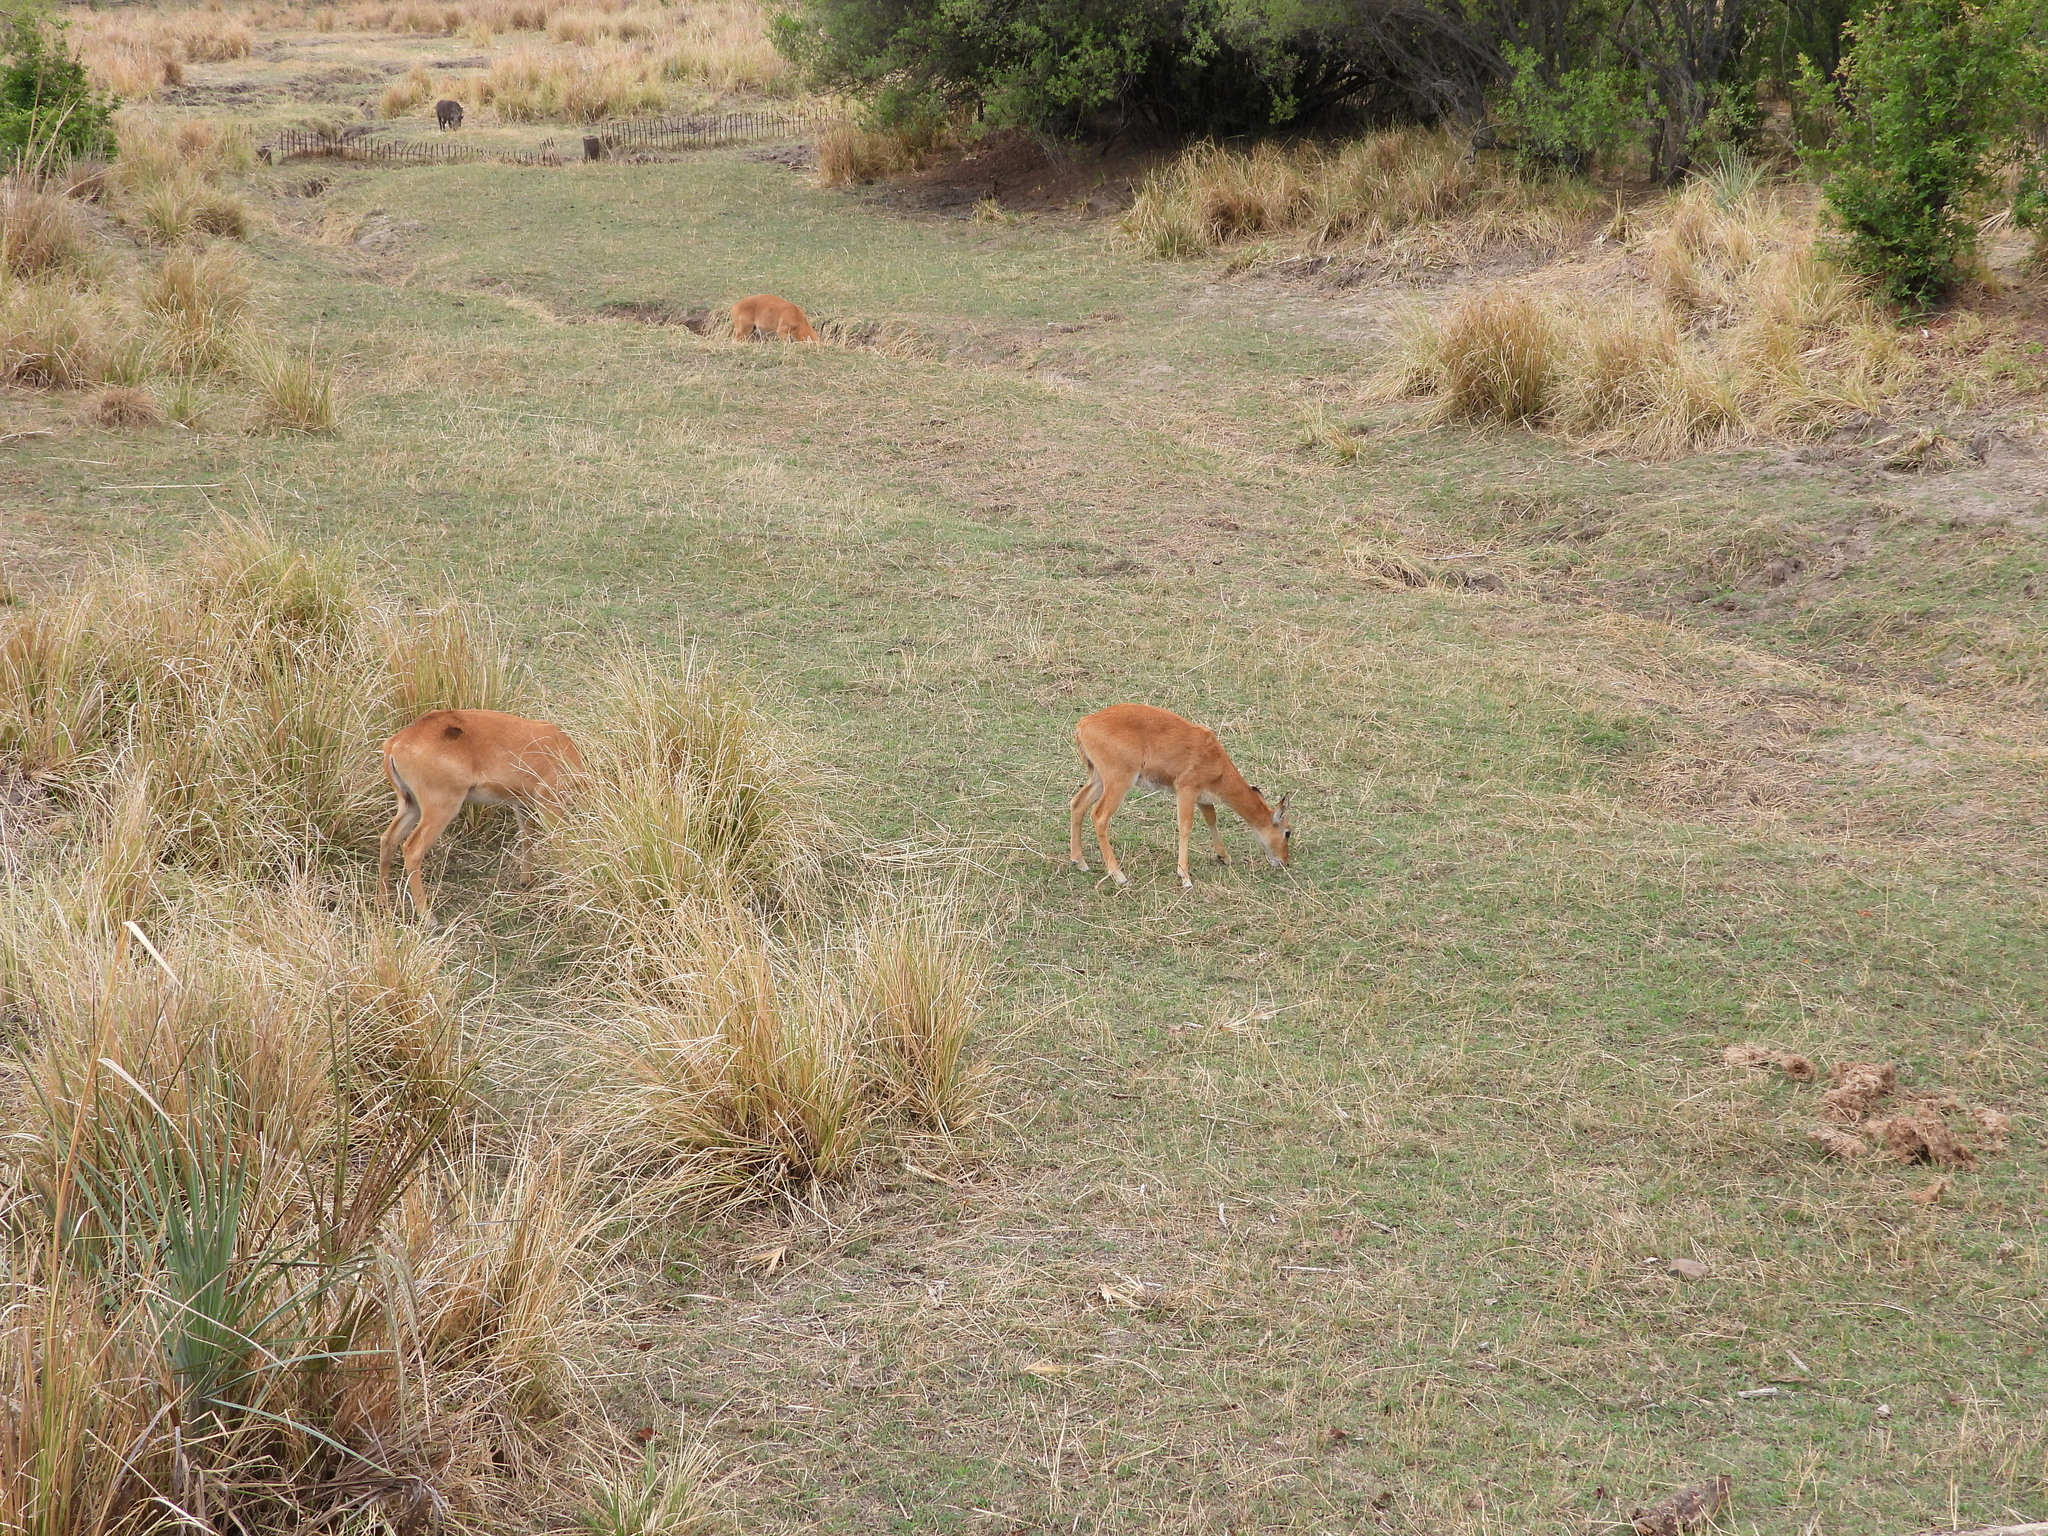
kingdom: Animalia
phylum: Chordata
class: Mammalia
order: Artiodactyla
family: Bovidae
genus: Kobus
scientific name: Kobus vardonii
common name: Puku
